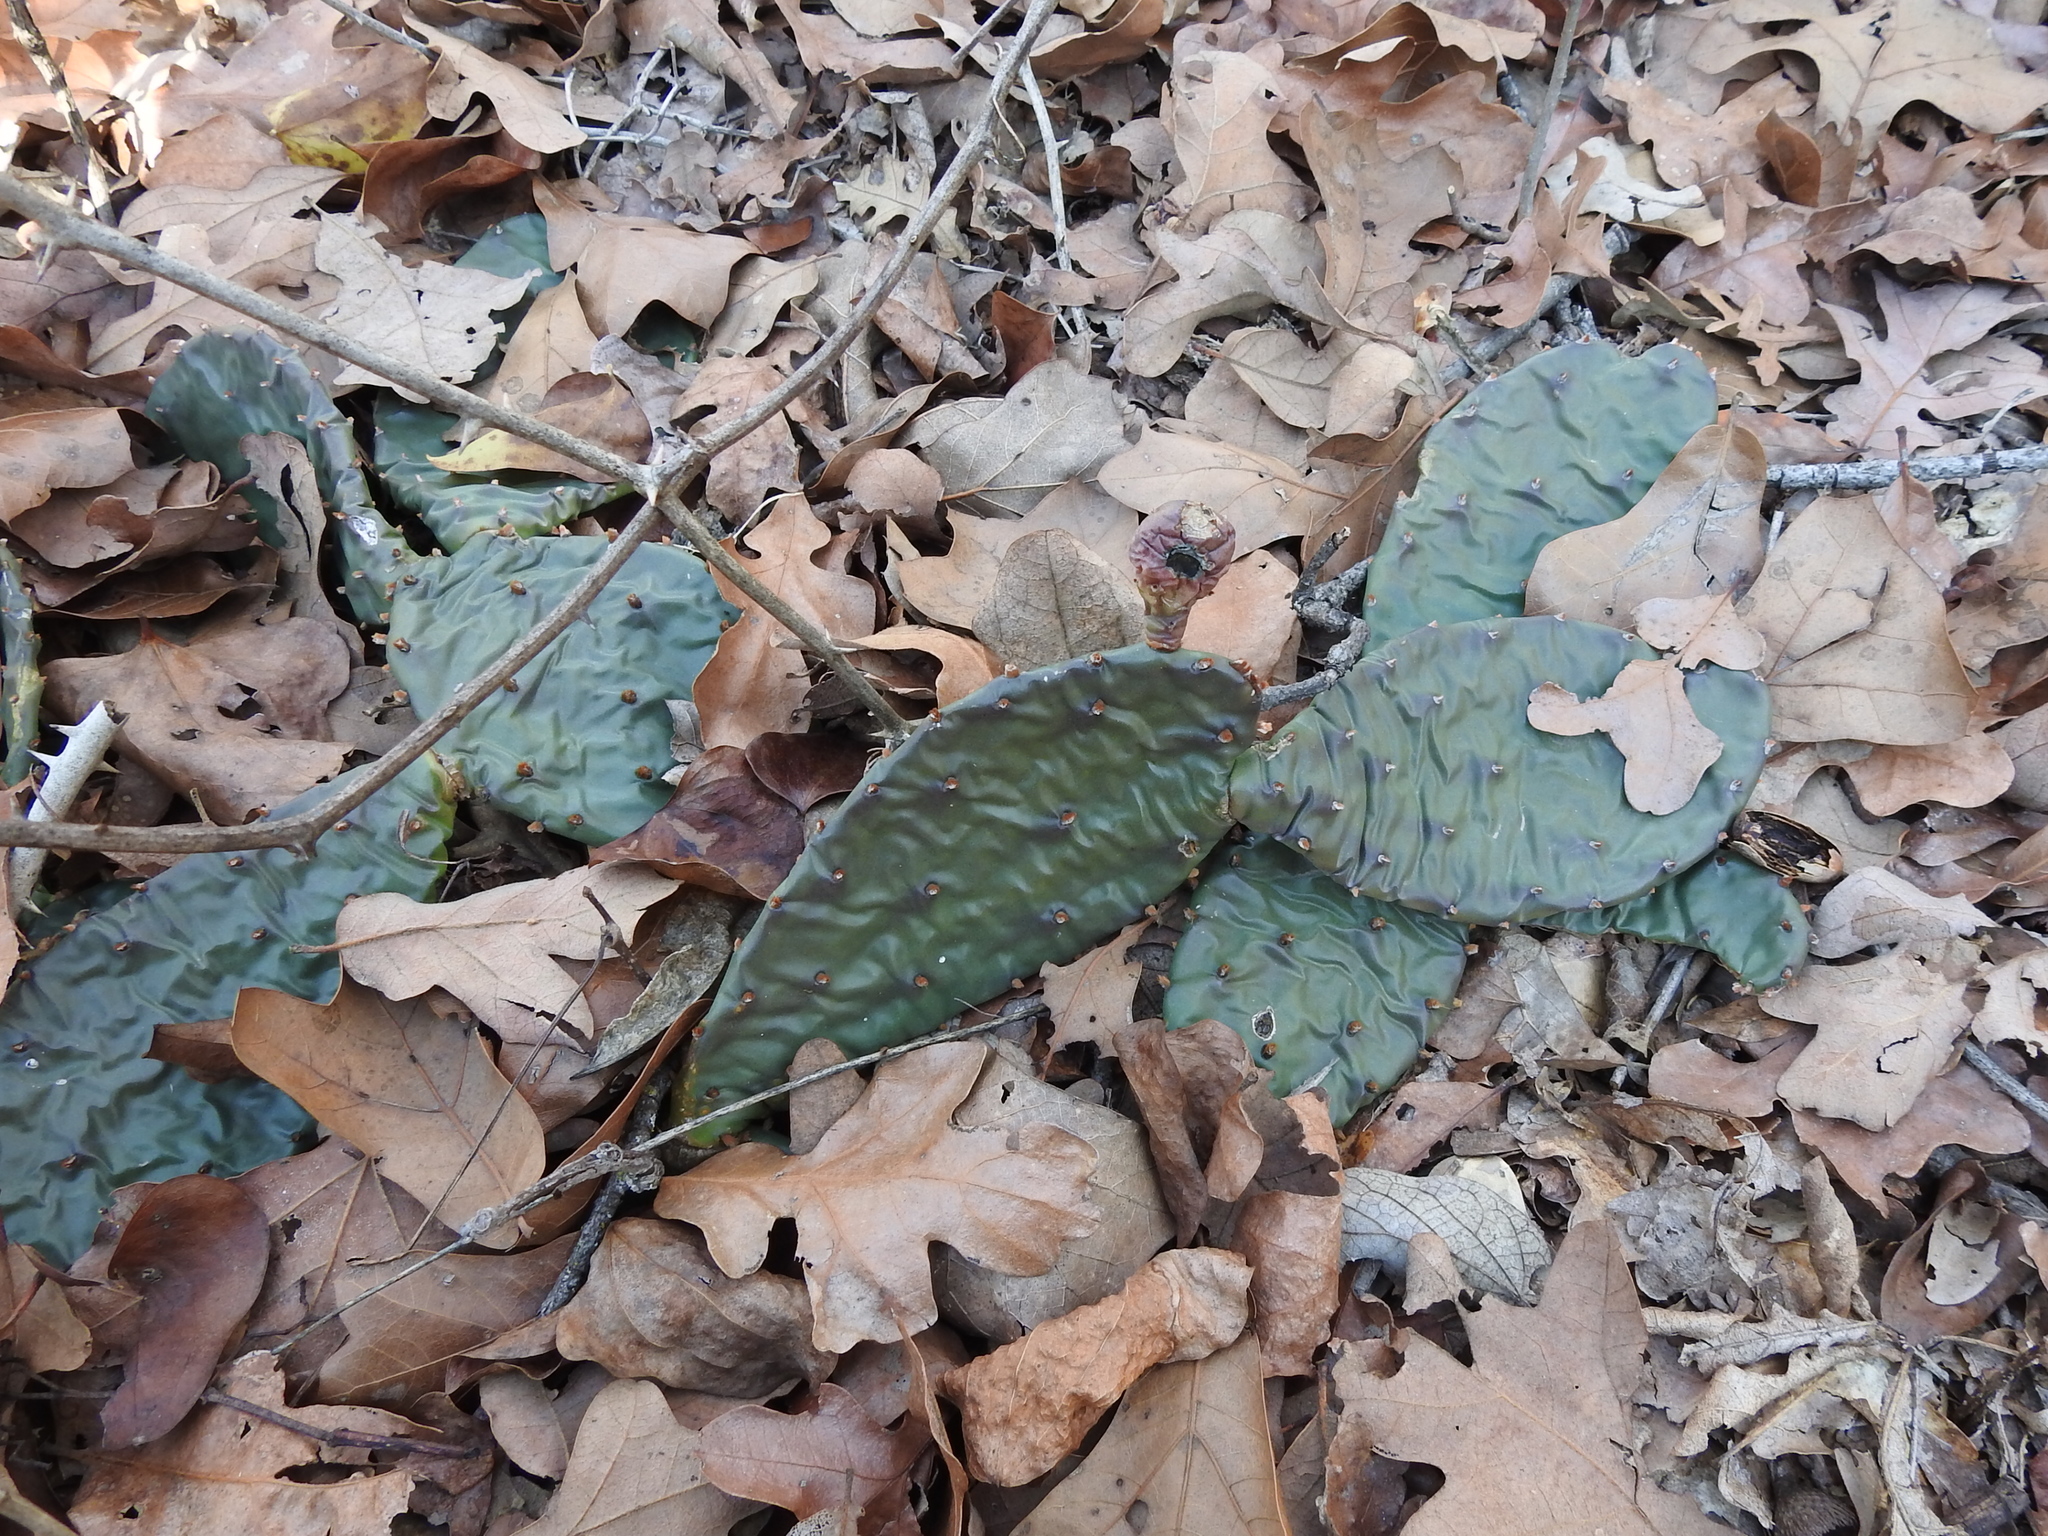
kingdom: Plantae
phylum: Tracheophyta
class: Magnoliopsida
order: Caryophyllales
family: Cactaceae
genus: Opuntia
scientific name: Opuntia macrorhiza
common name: Grassland pricklypear
